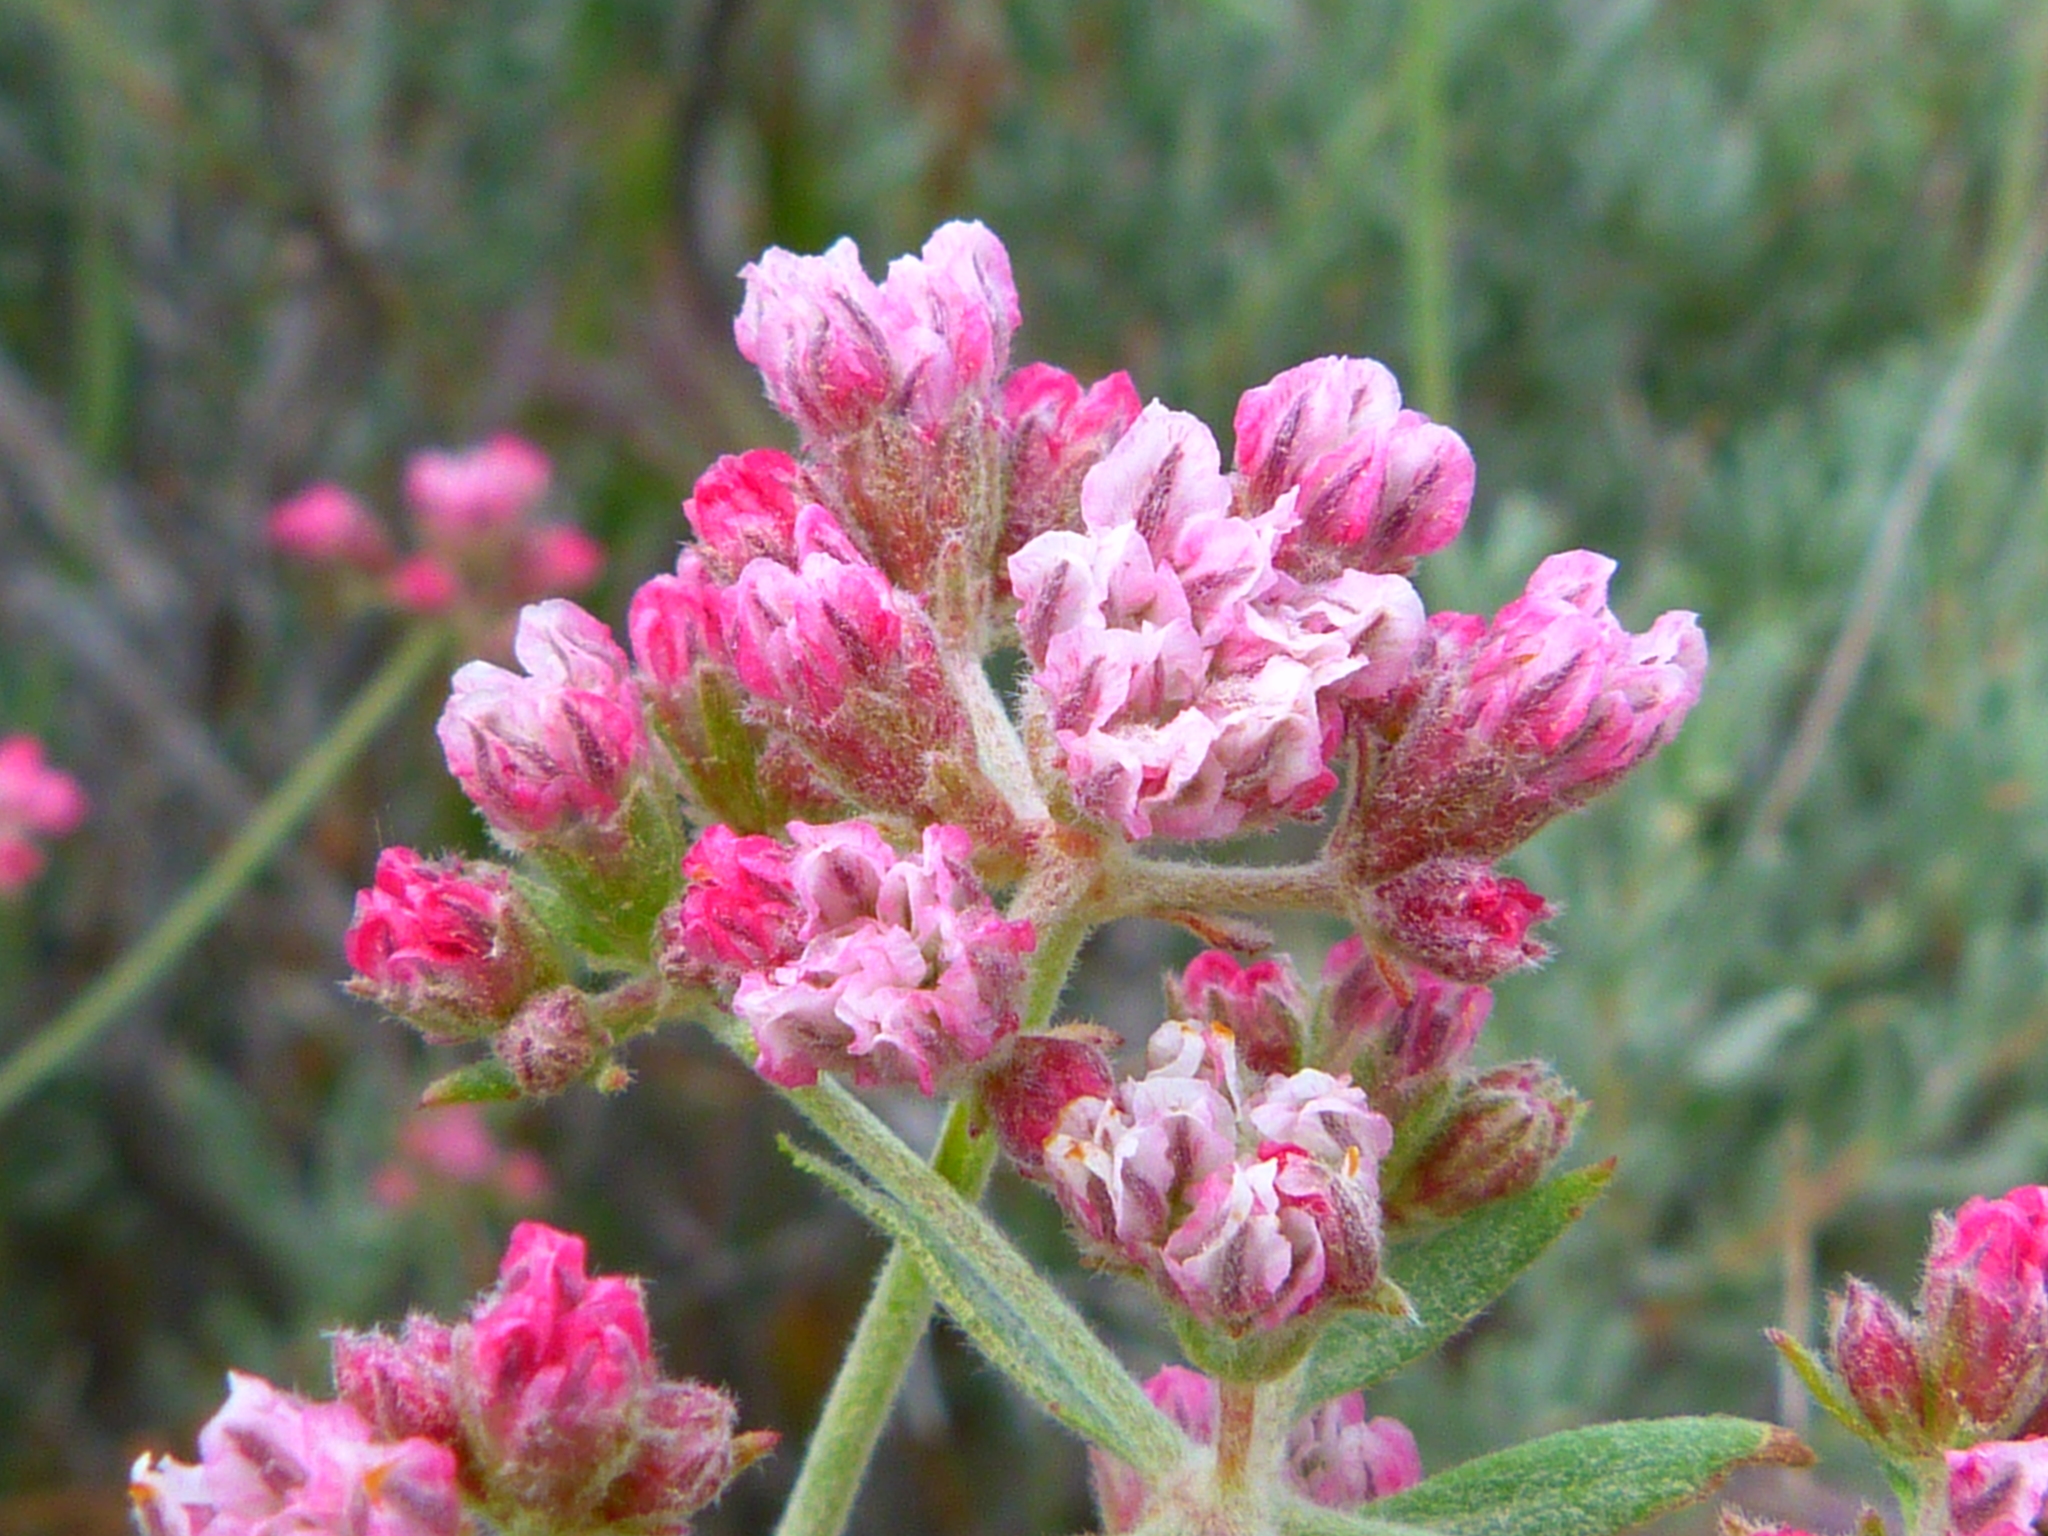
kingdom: Plantae
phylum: Tracheophyta
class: Magnoliopsida
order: Caryophyllales
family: Polygonaceae
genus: Eriogonum
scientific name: Eriogonum fasciculatum
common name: California wild buckwheat
